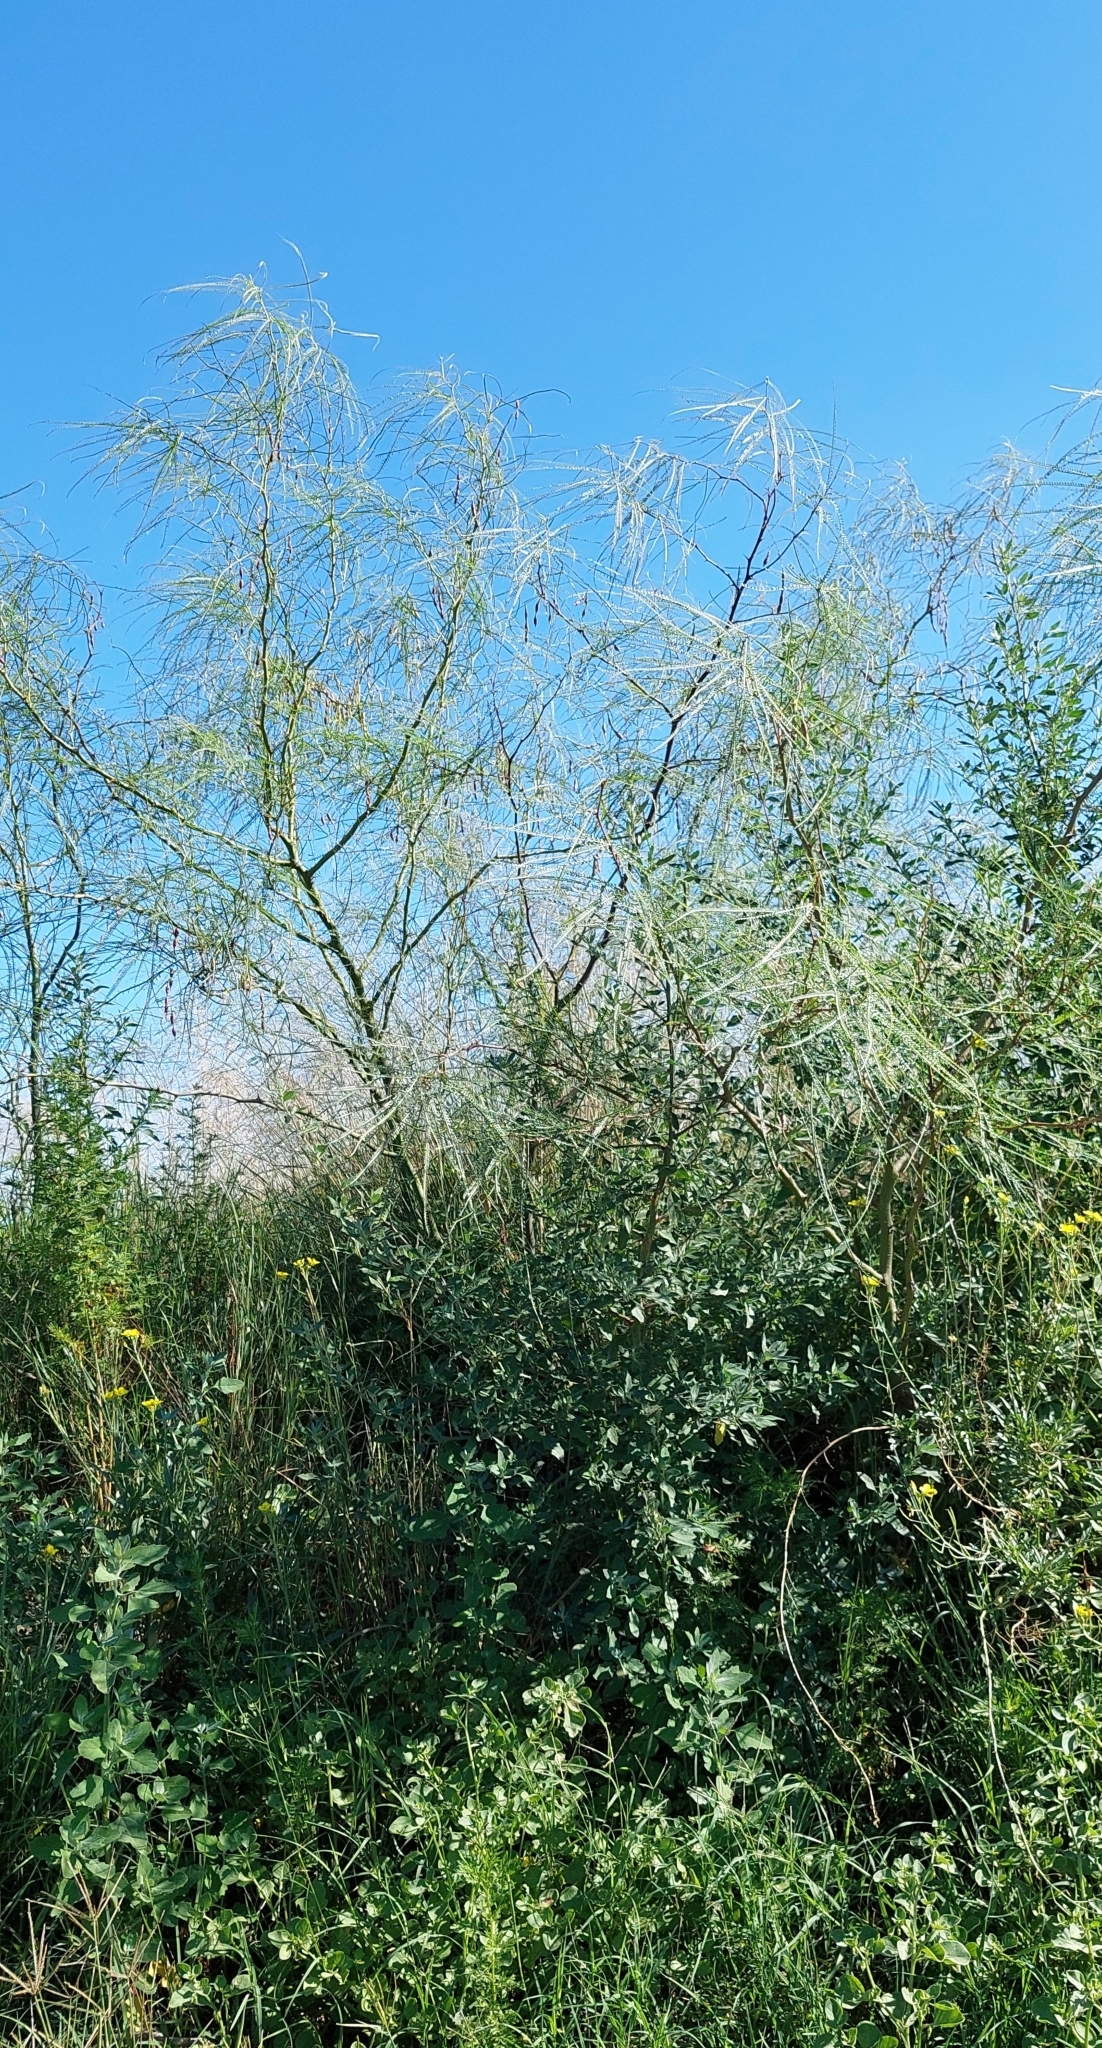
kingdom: Plantae
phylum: Tracheophyta
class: Magnoliopsida
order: Fabales
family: Fabaceae
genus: Parkinsonia
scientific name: Parkinsonia aculeata
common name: Jerusalem thorn
